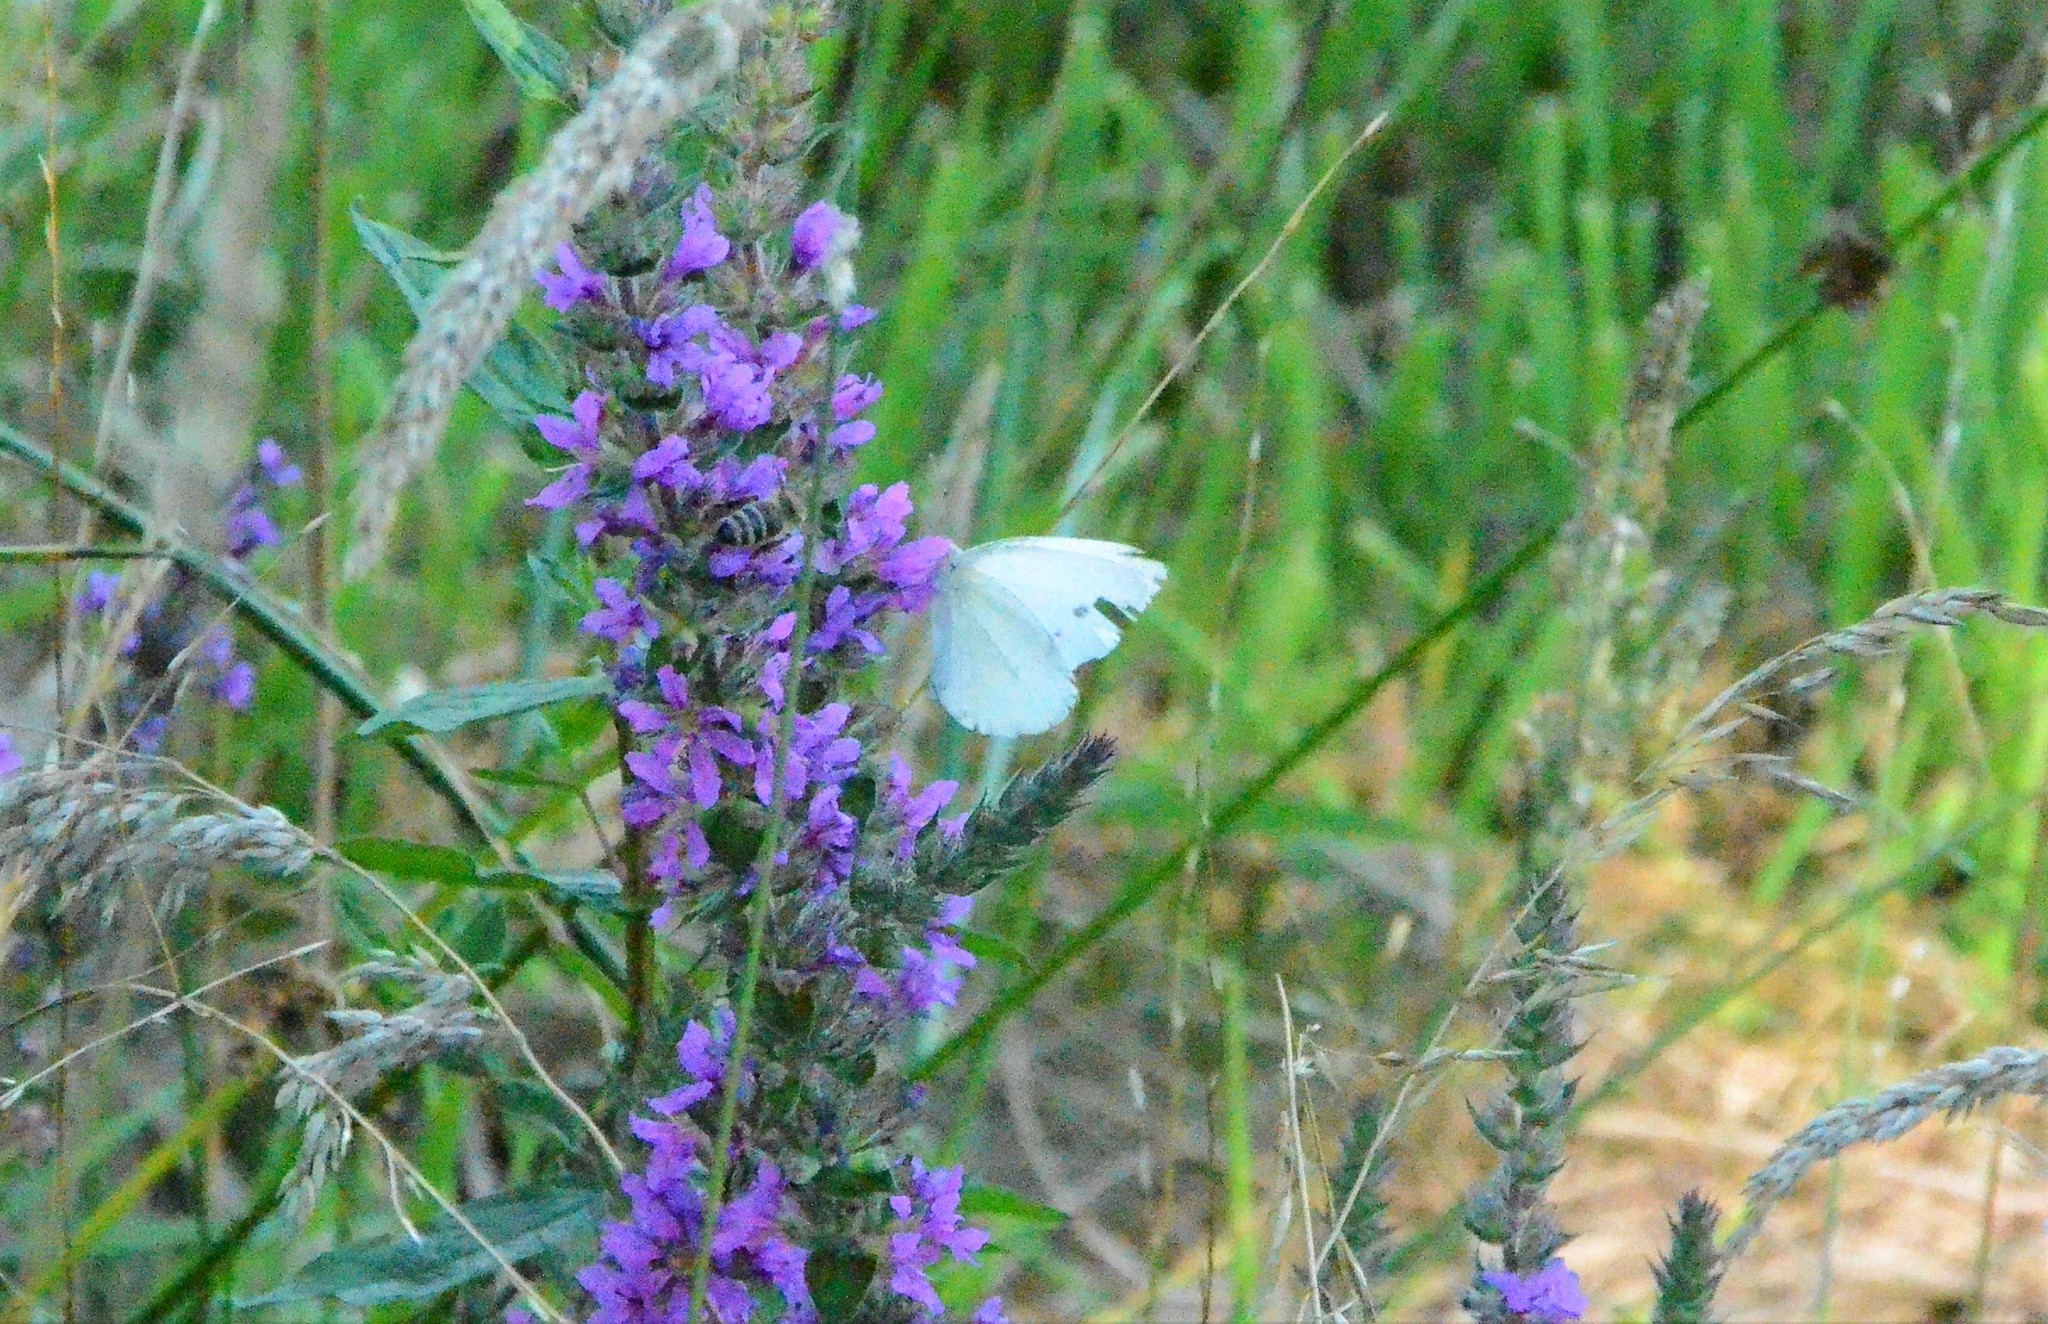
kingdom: Animalia
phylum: Arthropoda
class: Insecta
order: Lepidoptera
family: Pieridae
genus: Pieris
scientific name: Pieris napi
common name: Green-veined white
